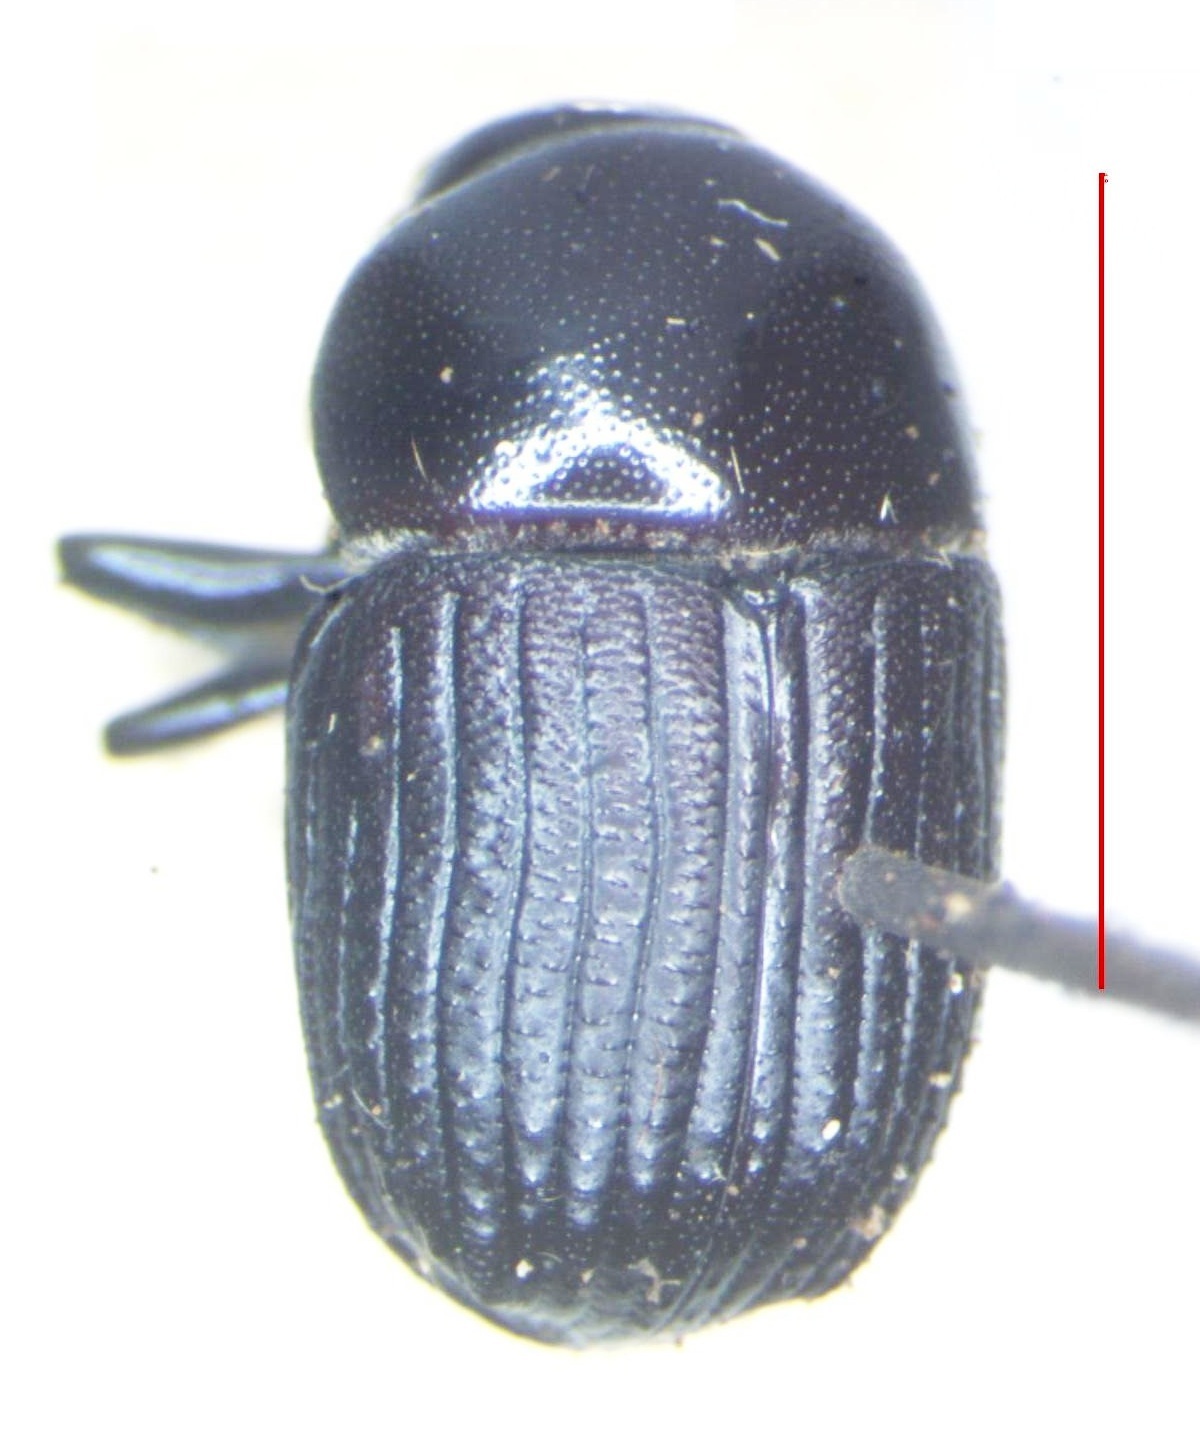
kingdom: Animalia
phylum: Arthropoda
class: Insecta
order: Coleoptera
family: Curculionidae
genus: Phloeoborus
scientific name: Phloeoborus punctatorugosus
